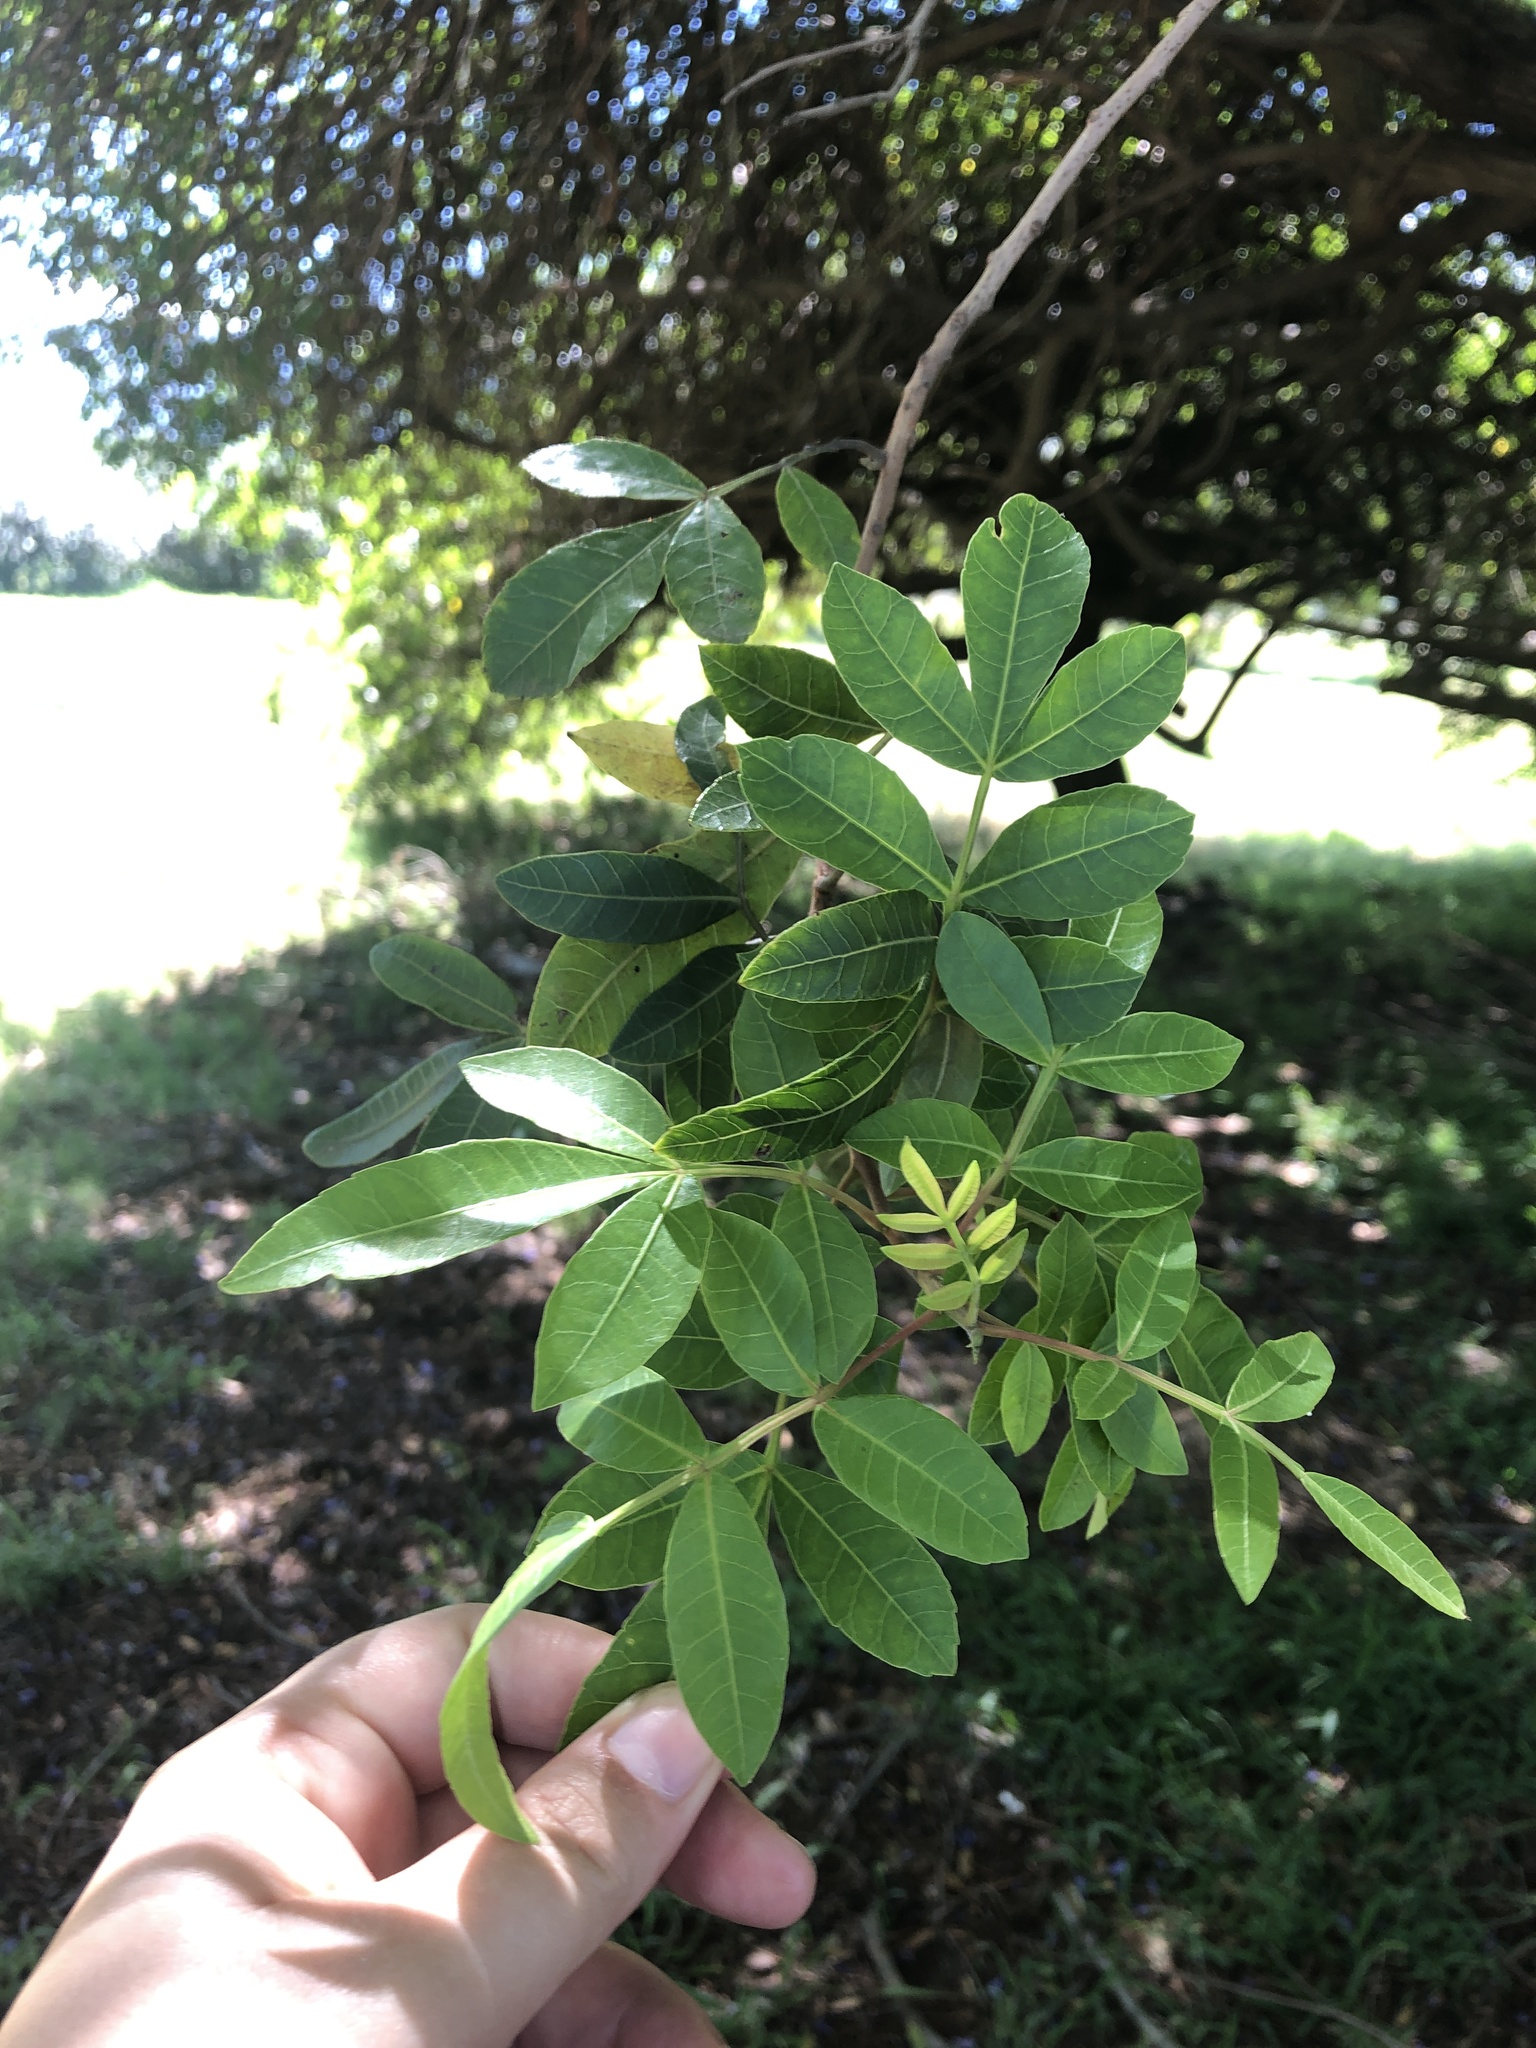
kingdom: Plantae
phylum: Tracheophyta
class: Magnoliopsida
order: Sapindales
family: Anacardiaceae
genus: Schinus
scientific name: Schinus terebinthifolia
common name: Brazilian peppertree
